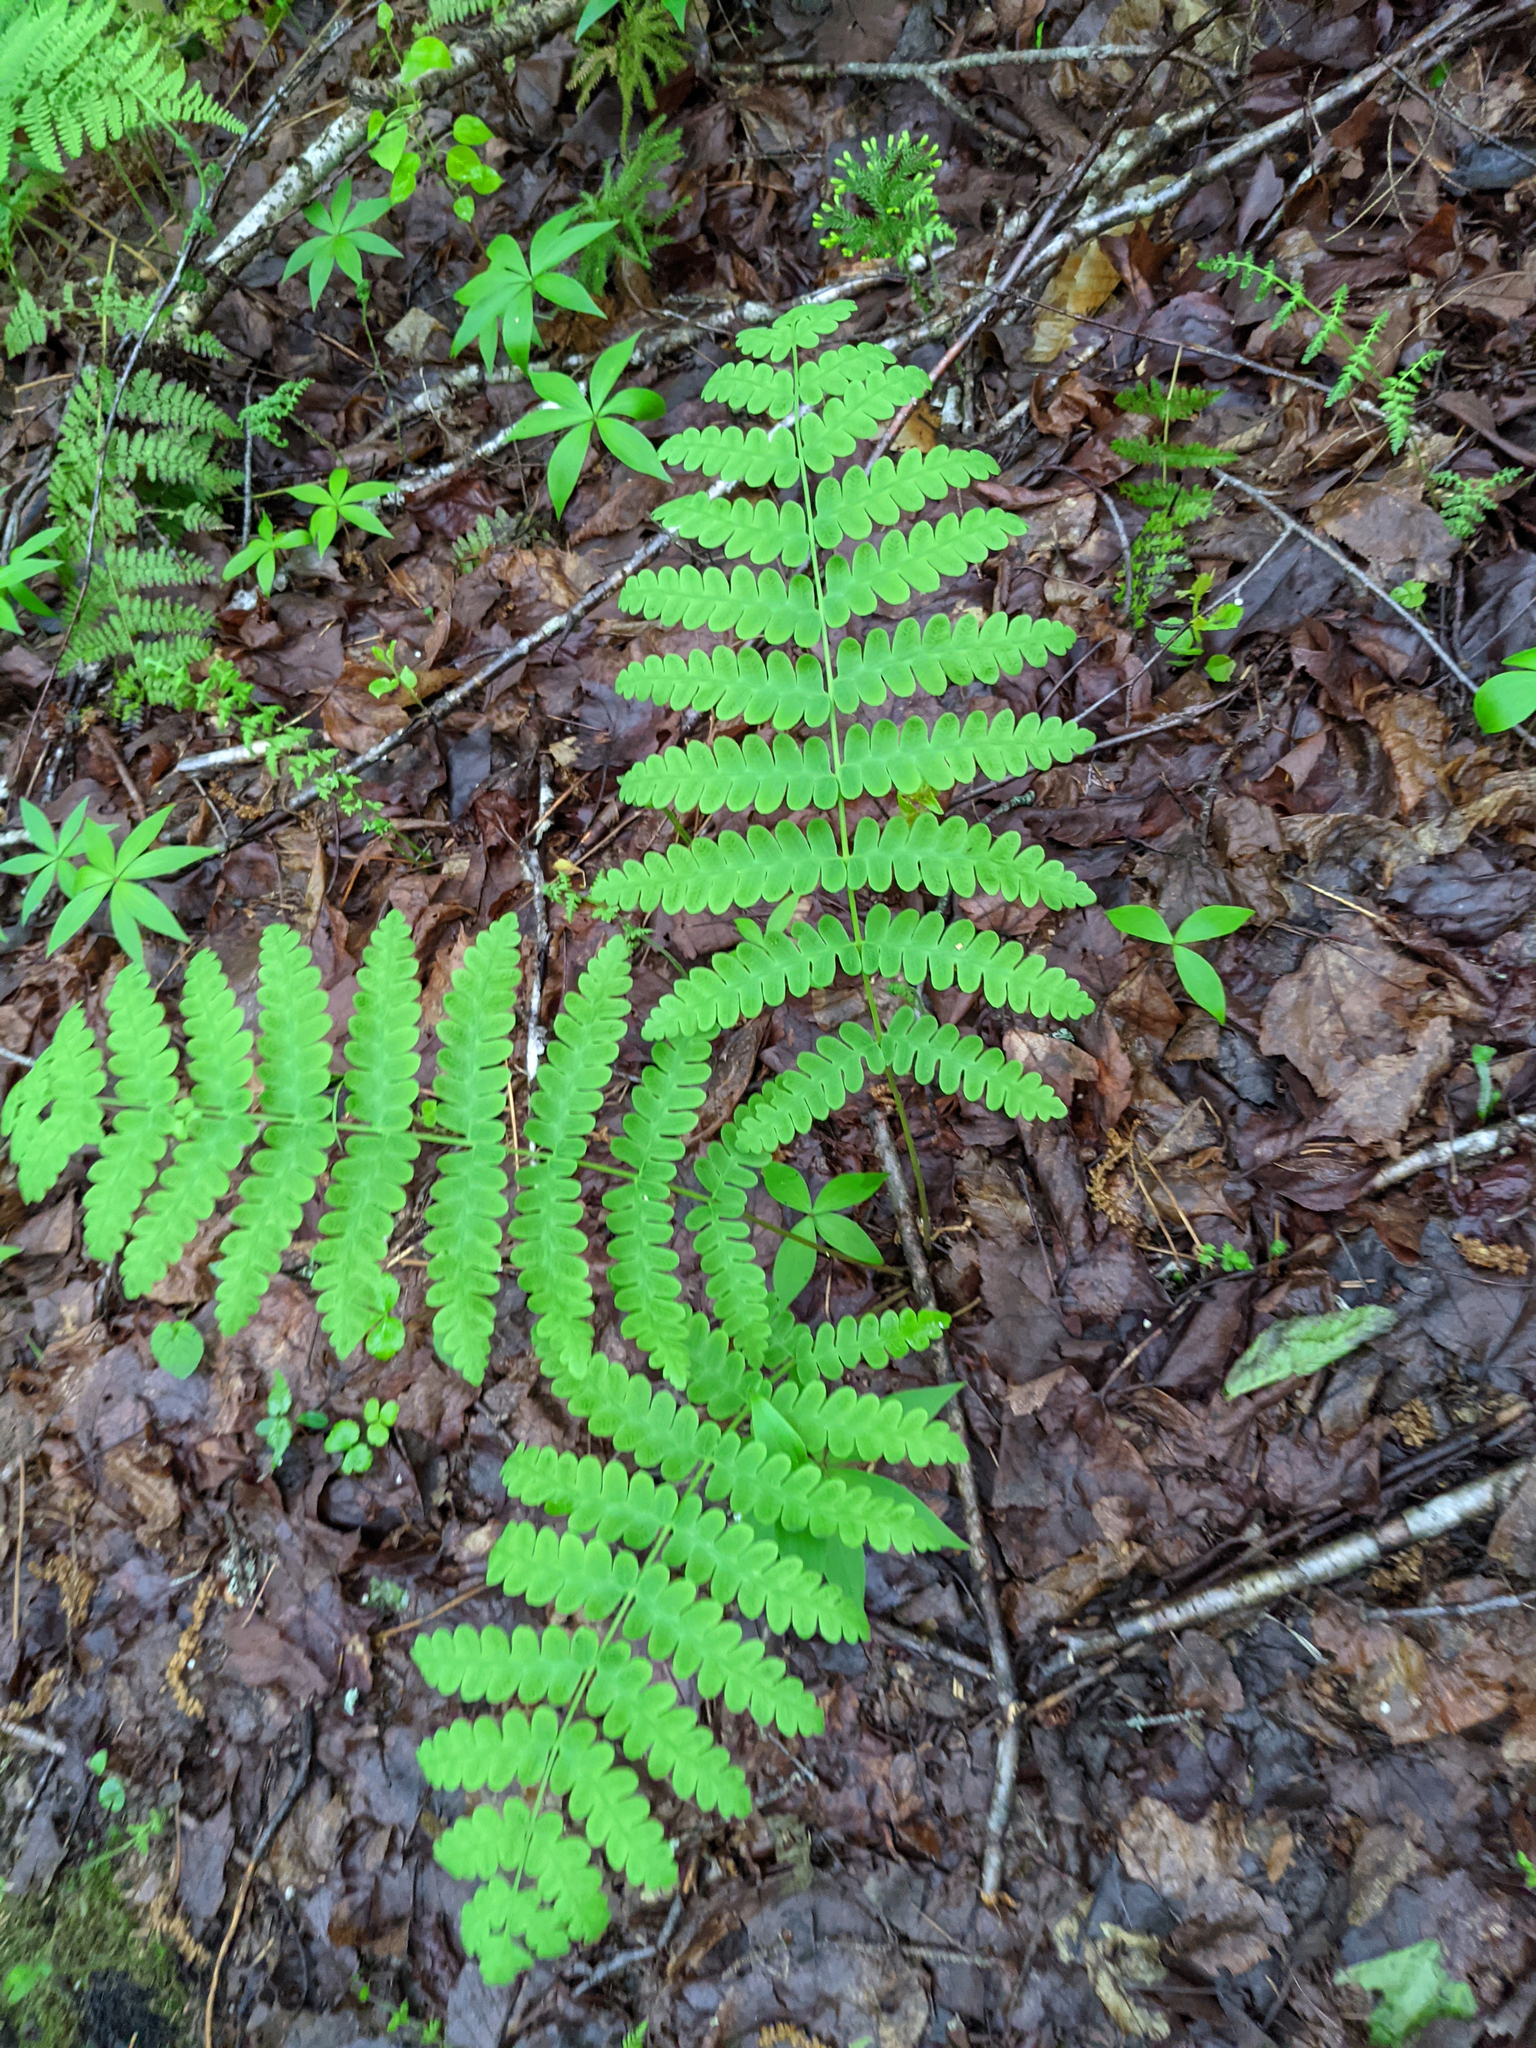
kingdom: Plantae
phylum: Tracheophyta
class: Polypodiopsida
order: Osmundales
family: Osmundaceae
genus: Claytosmunda
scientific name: Claytosmunda claytoniana
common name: Clayton's fern
